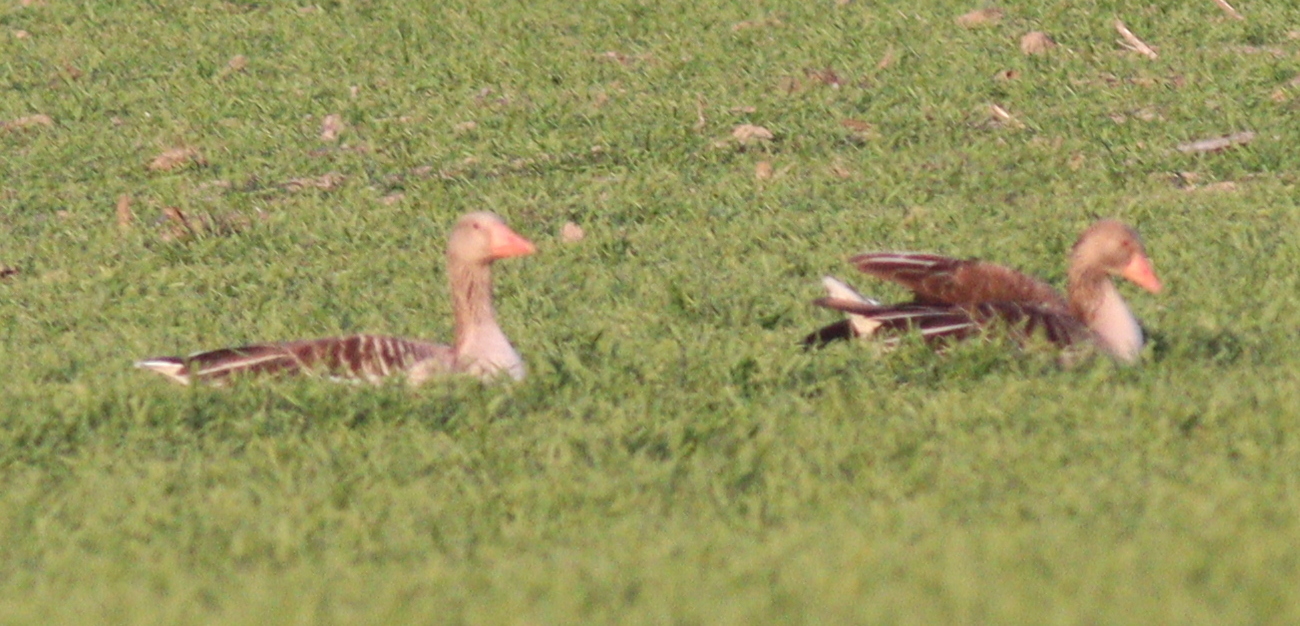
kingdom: Animalia
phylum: Chordata
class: Aves
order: Anseriformes
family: Anatidae
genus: Anser
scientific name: Anser anser
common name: Greylag goose
